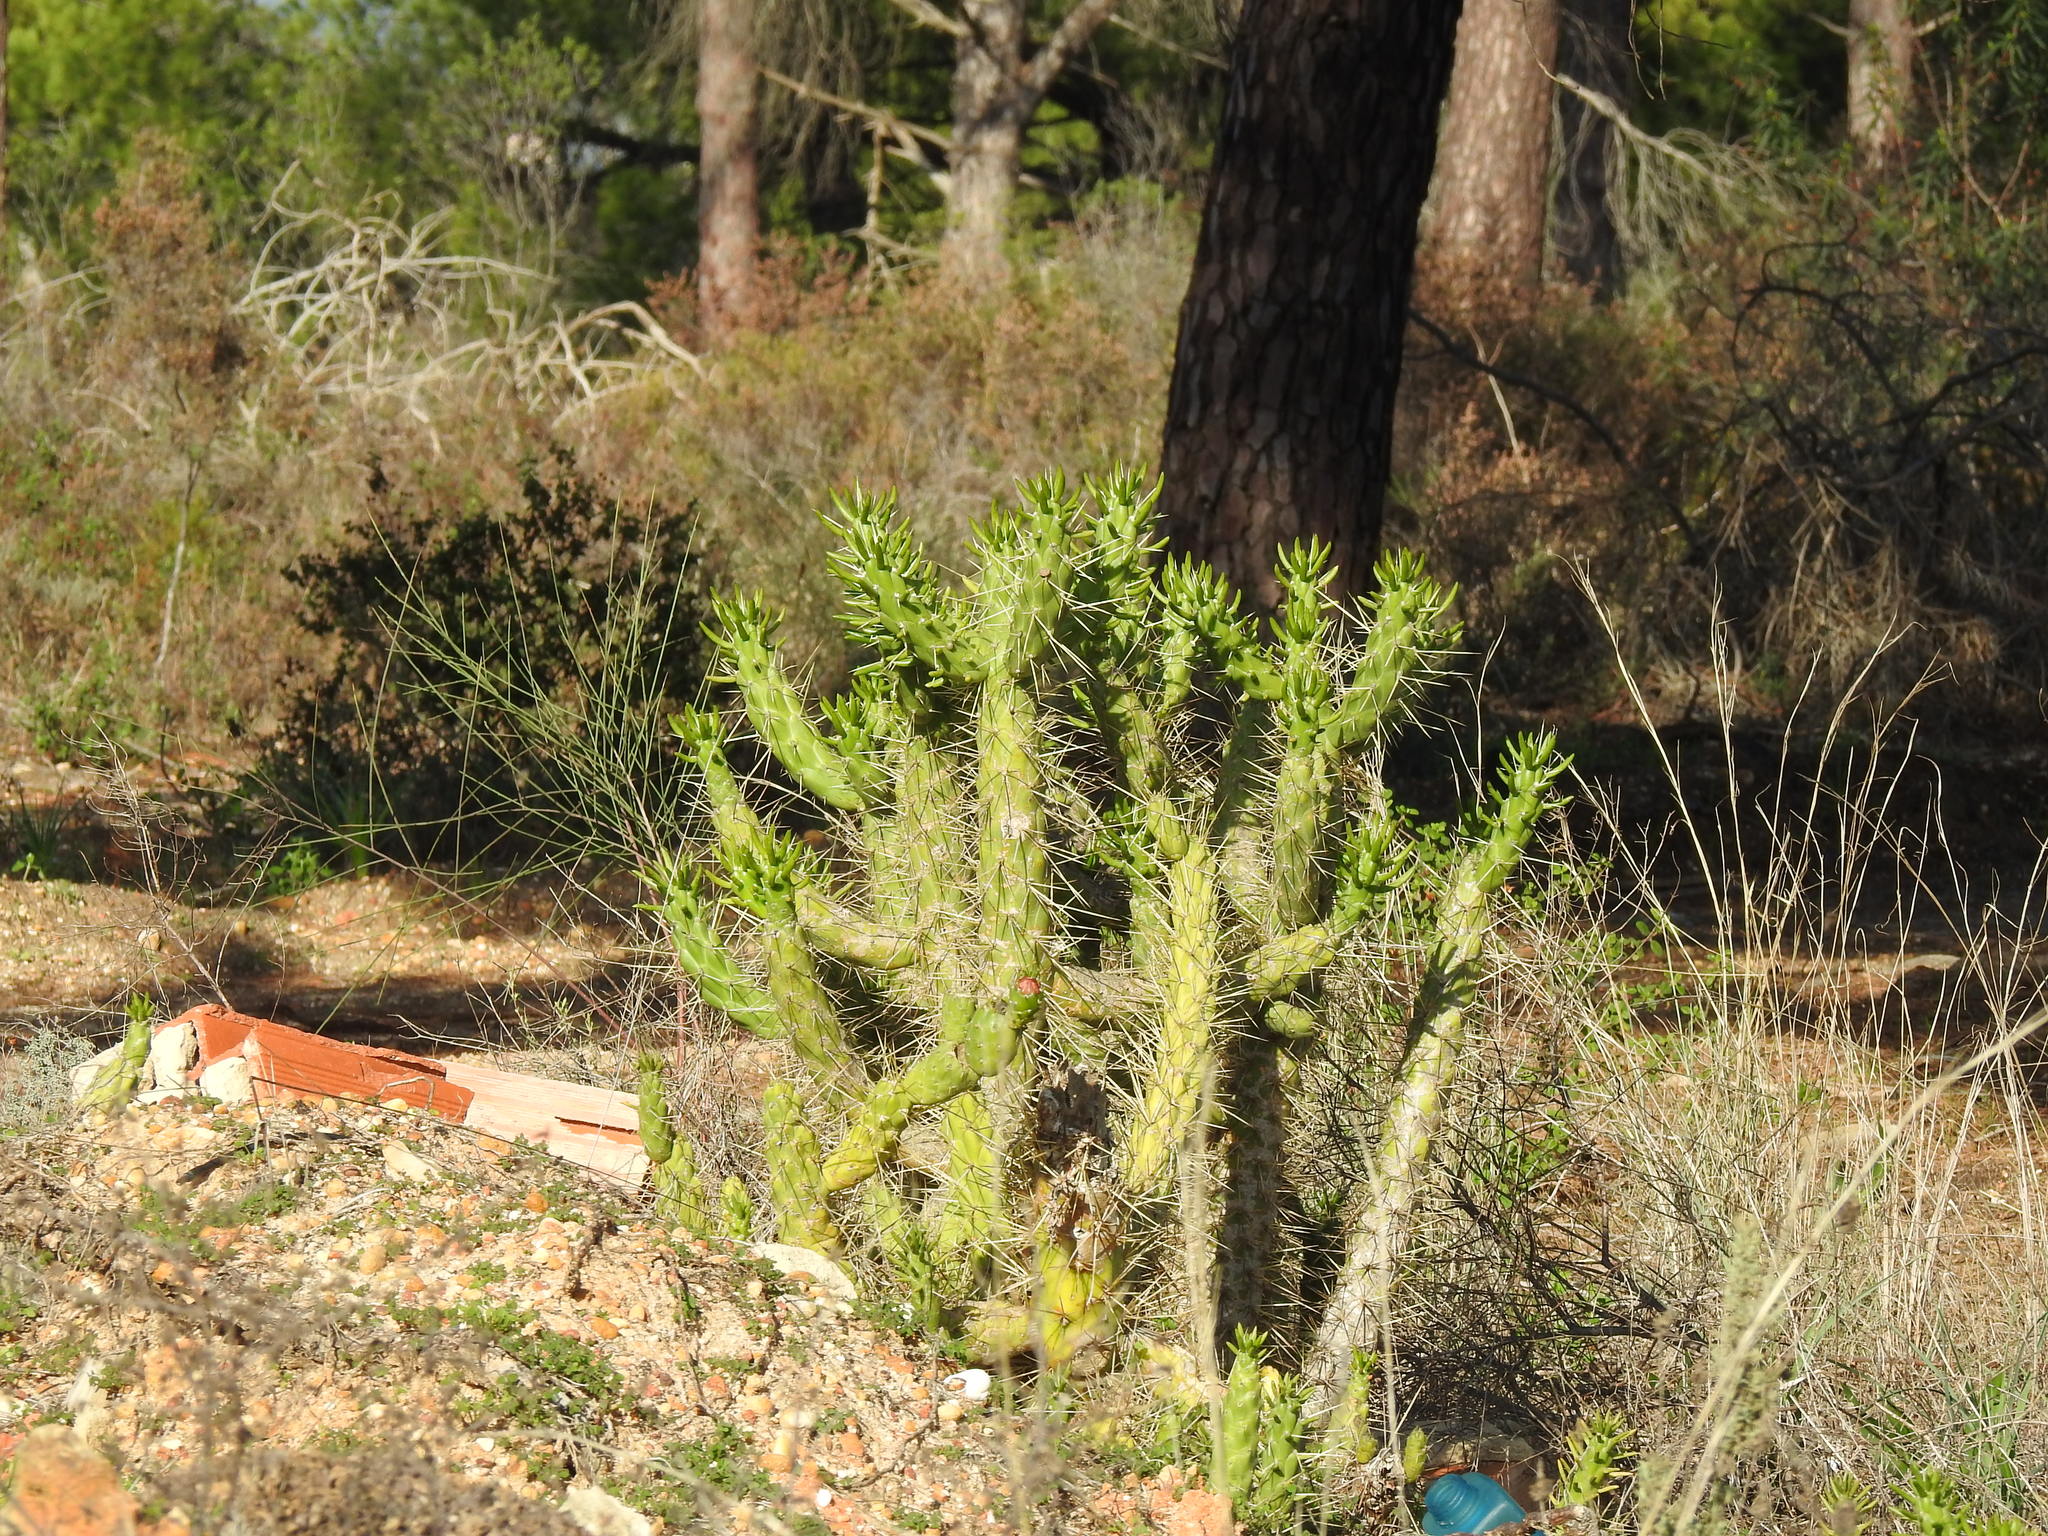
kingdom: Plantae
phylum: Tracheophyta
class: Magnoliopsida
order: Caryophyllales
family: Cactaceae
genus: Austrocylindropuntia
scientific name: Austrocylindropuntia subulata
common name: Eve's needle cactus
